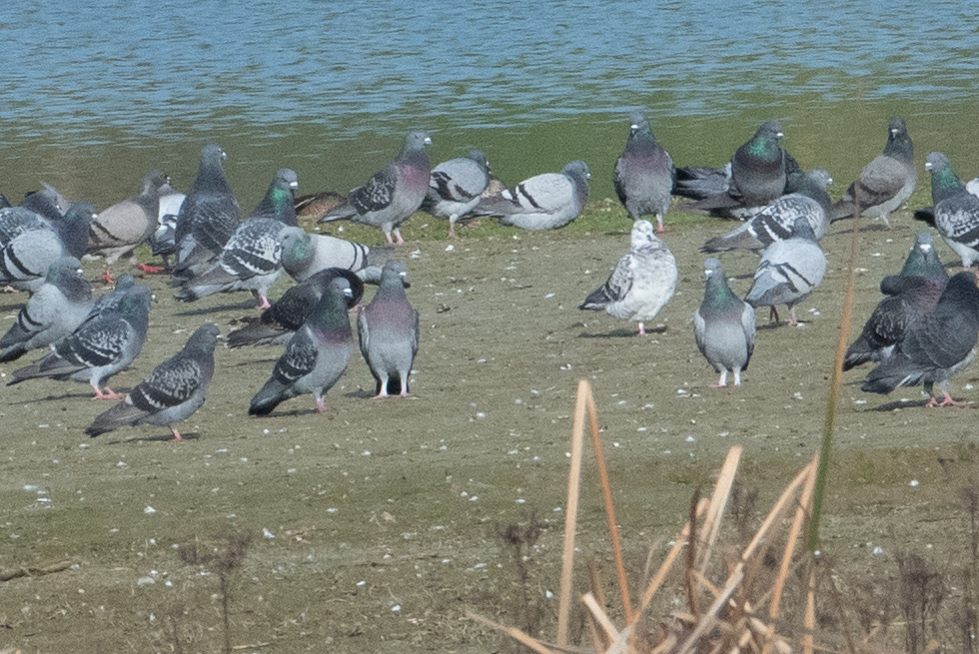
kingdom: Animalia
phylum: Chordata
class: Aves
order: Columbiformes
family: Columbidae
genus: Columba
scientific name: Columba livia
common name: Rock pigeon
